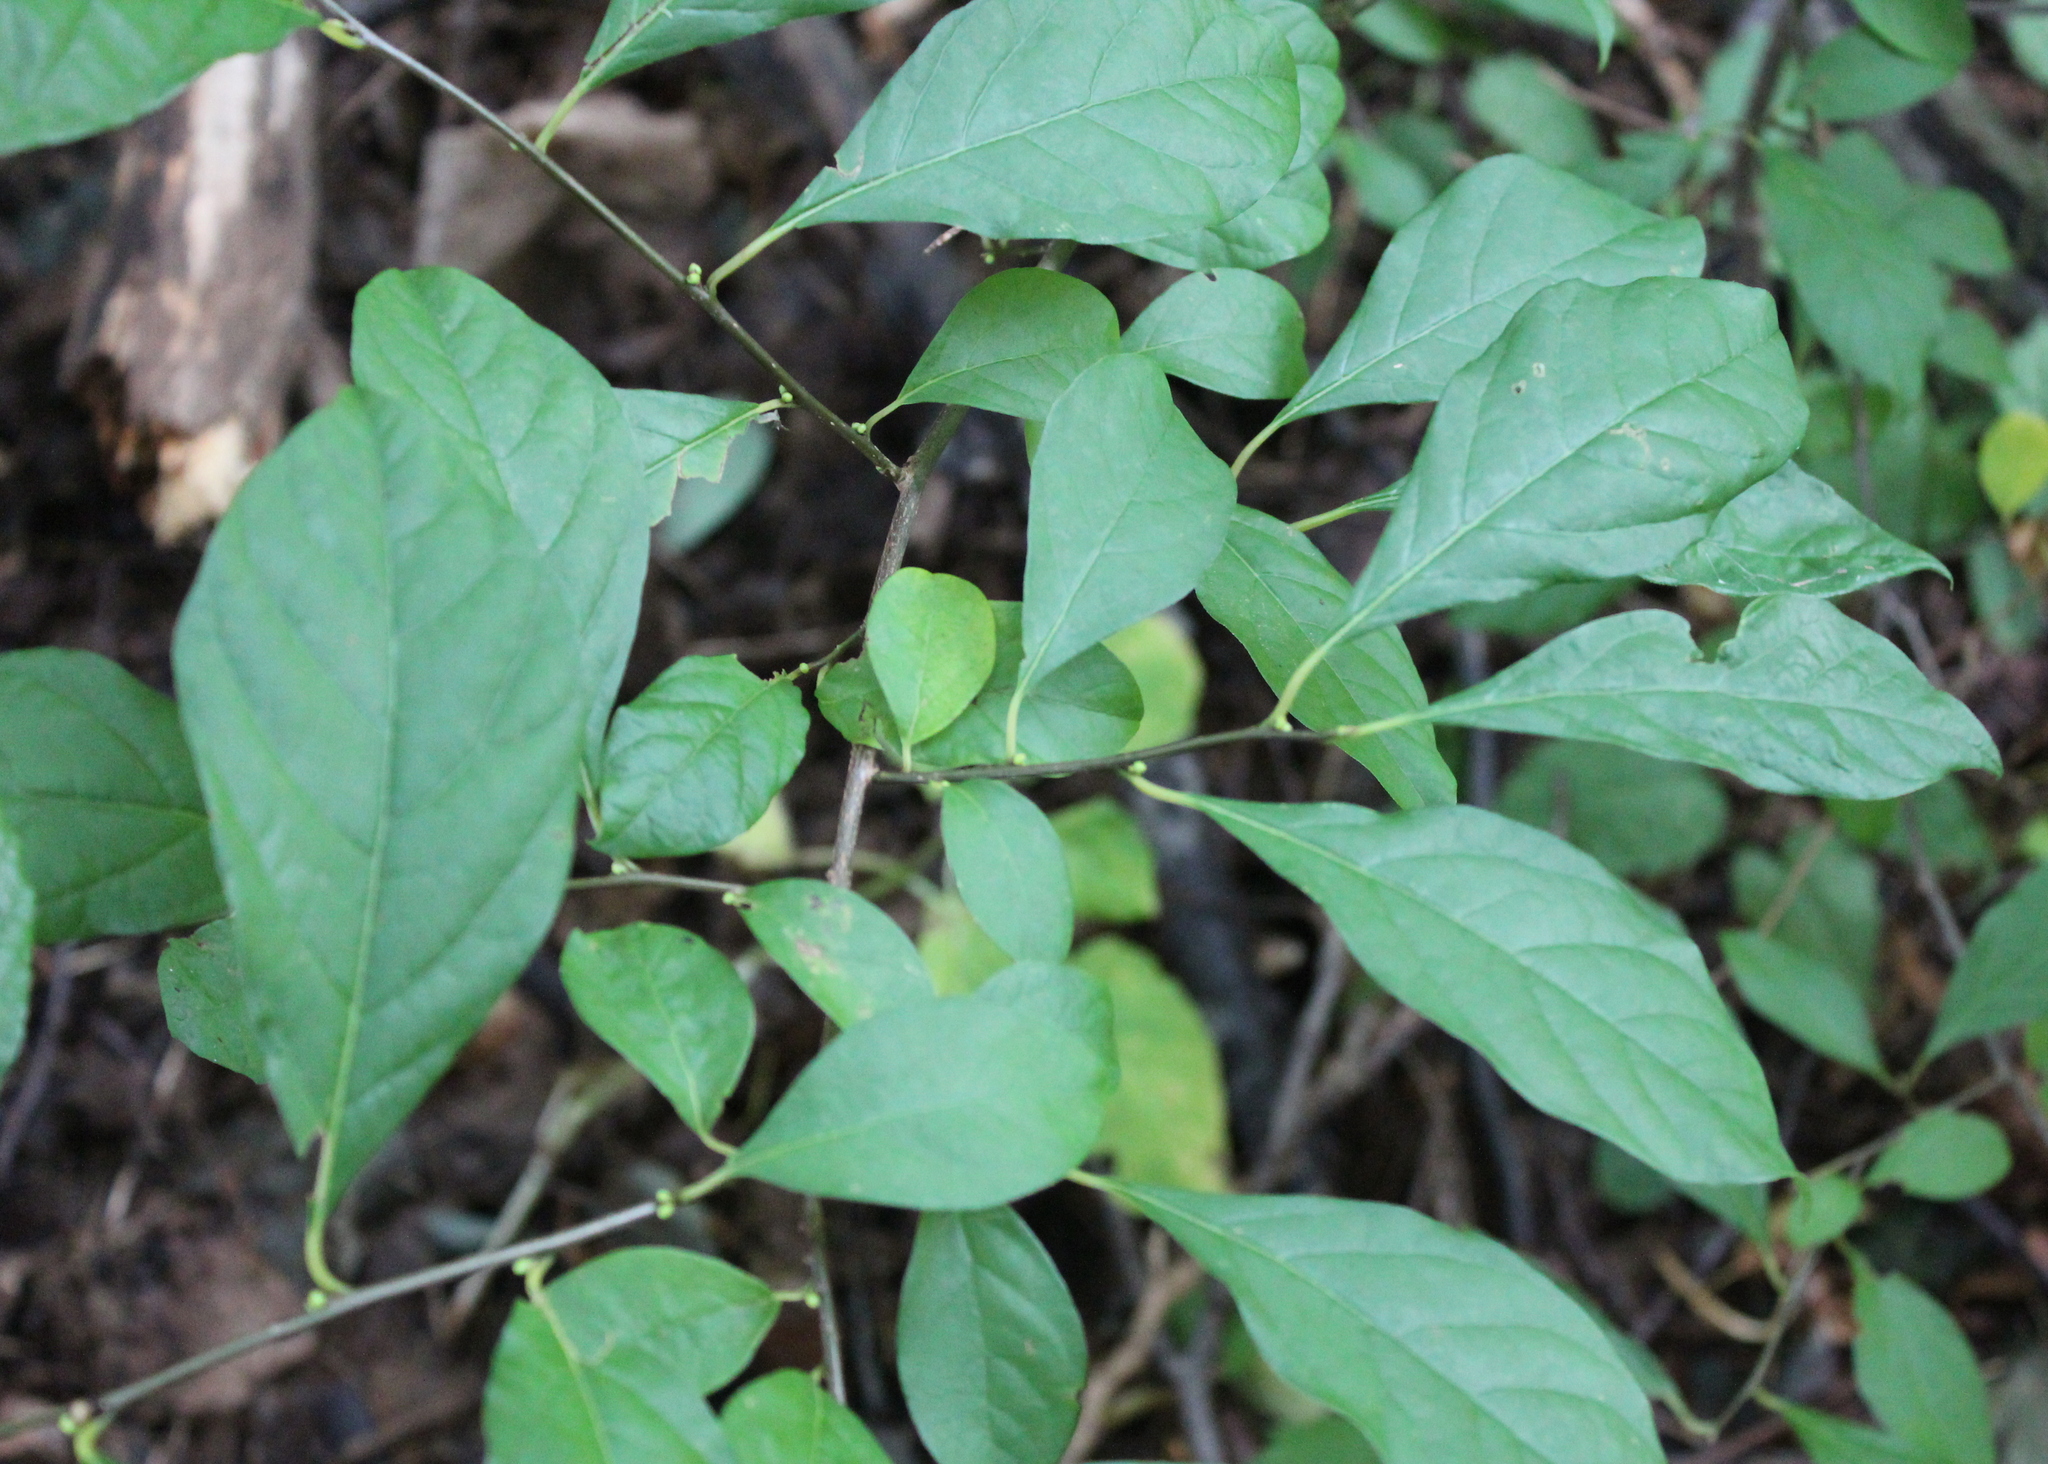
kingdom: Plantae
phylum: Tracheophyta
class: Magnoliopsida
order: Laurales
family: Lauraceae
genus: Lindera
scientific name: Lindera benzoin
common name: Spicebush
